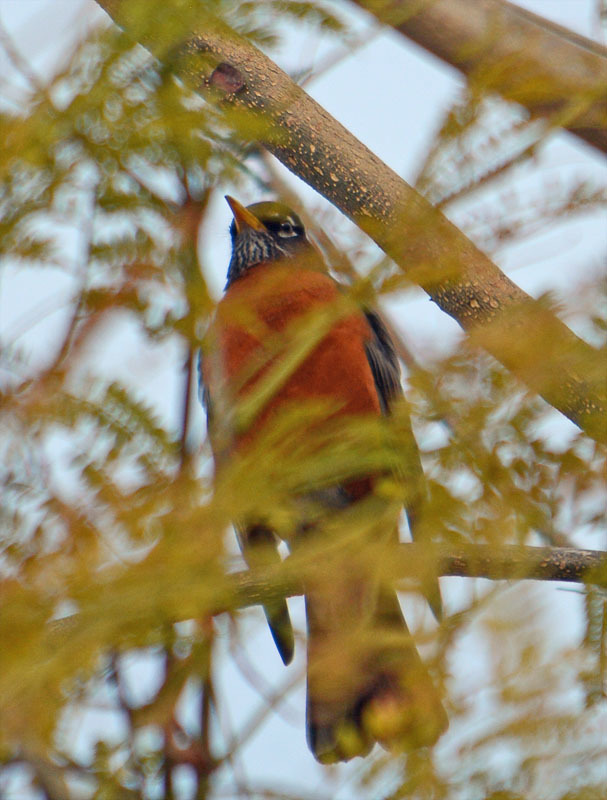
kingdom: Animalia
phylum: Chordata
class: Aves
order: Passeriformes
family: Turdidae
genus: Turdus
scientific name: Turdus migratorius
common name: American robin
